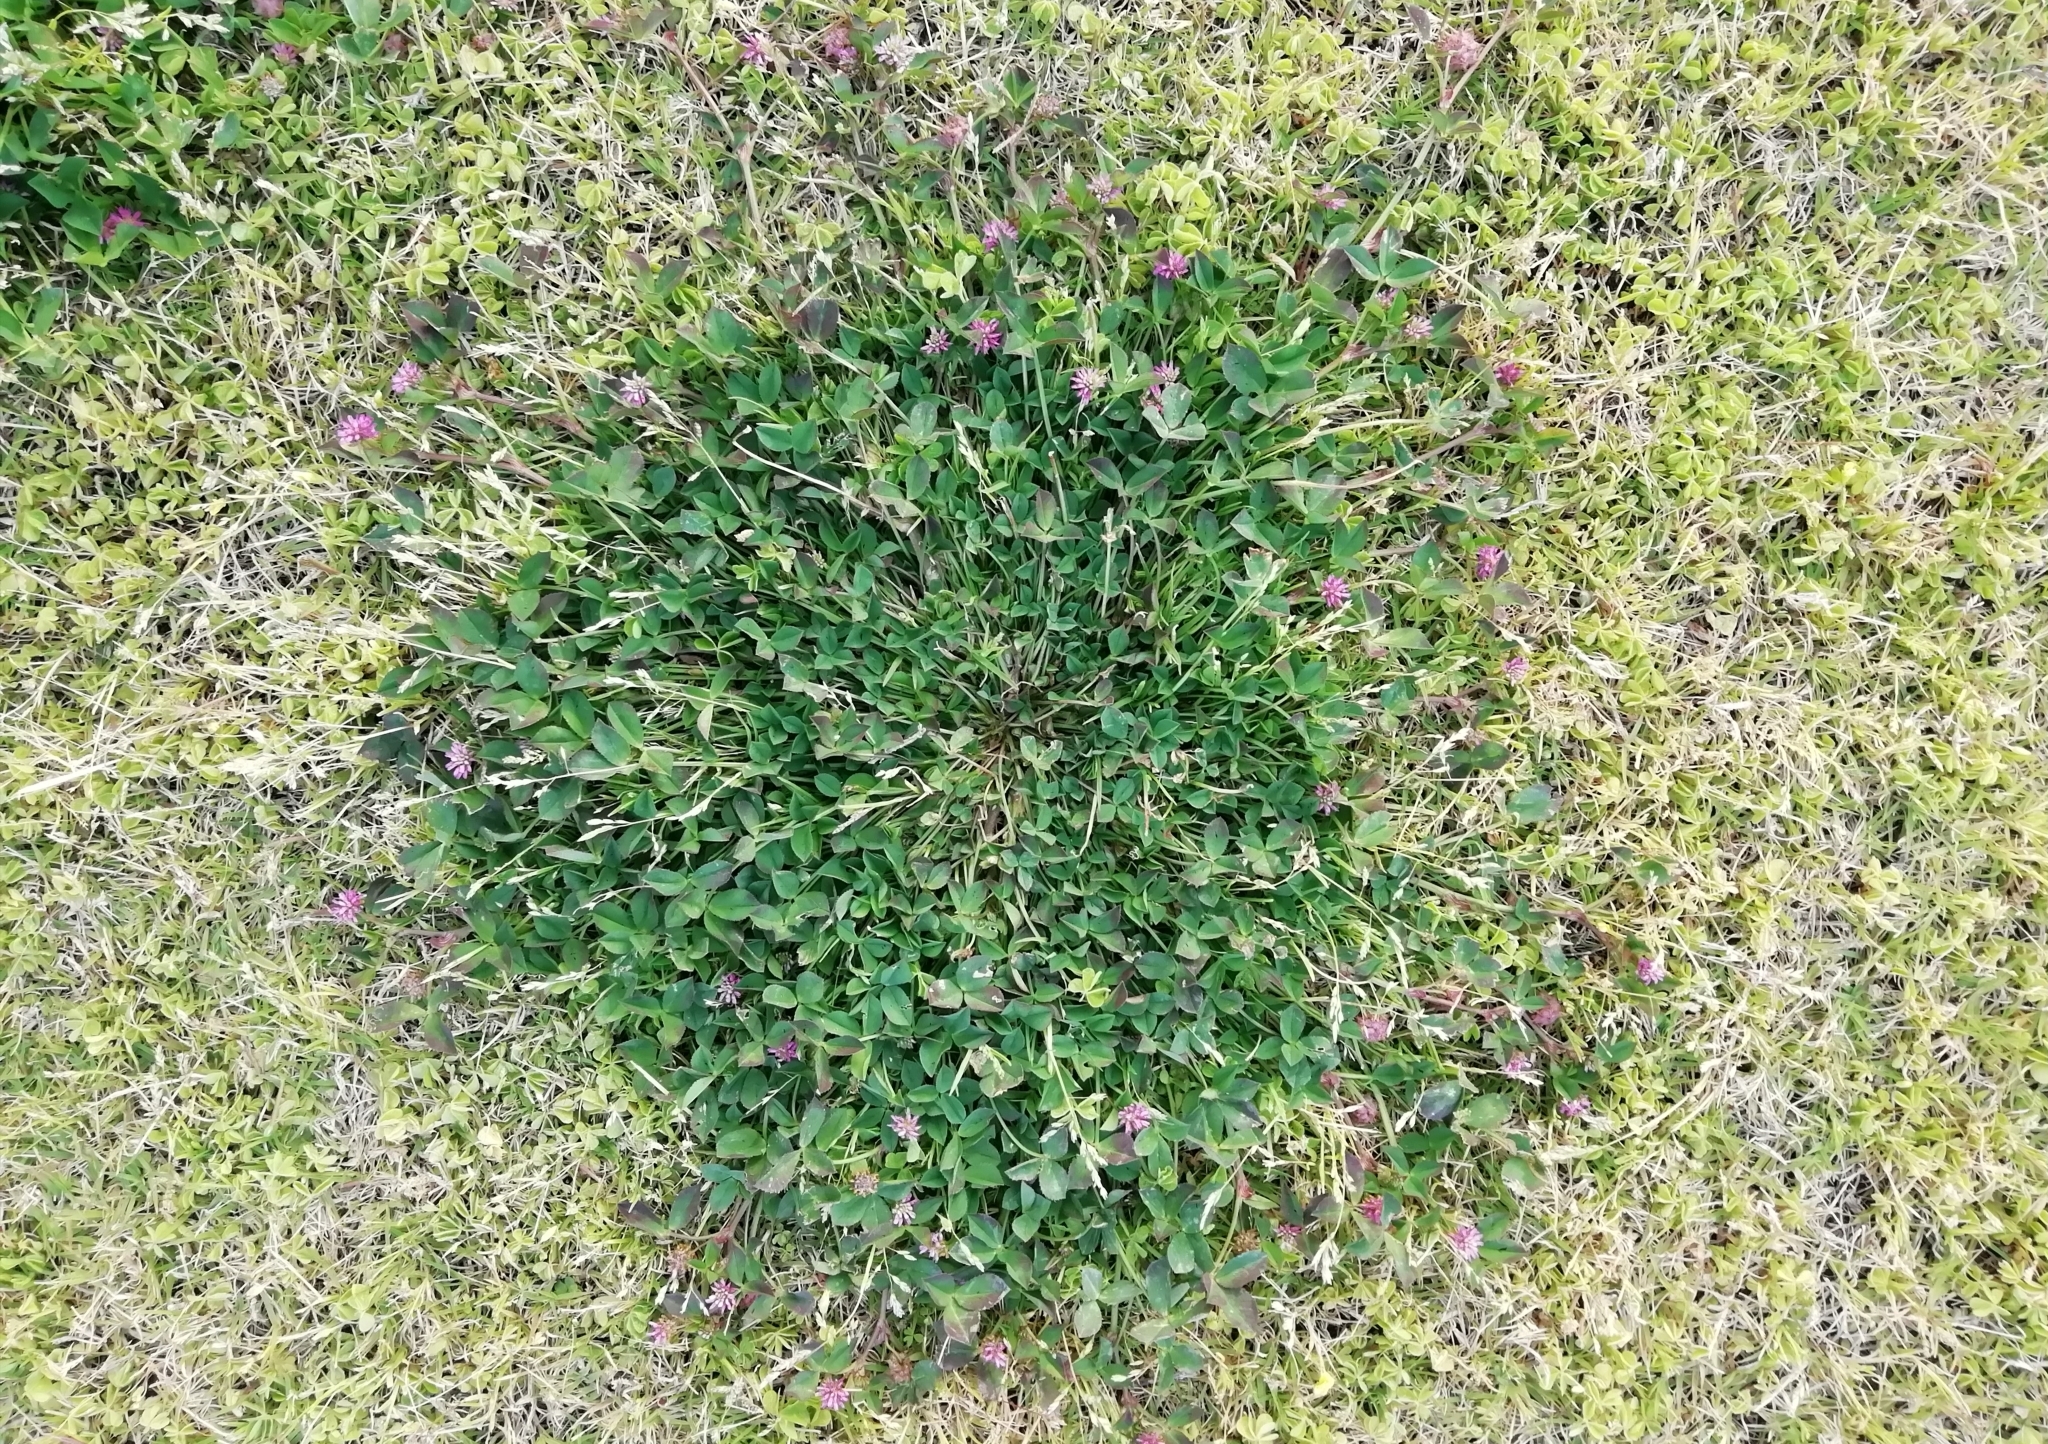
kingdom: Plantae
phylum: Tracheophyta
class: Magnoliopsida
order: Fabales
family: Fabaceae
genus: Trifolium
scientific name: Trifolium resupinatum
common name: Reversed clover
